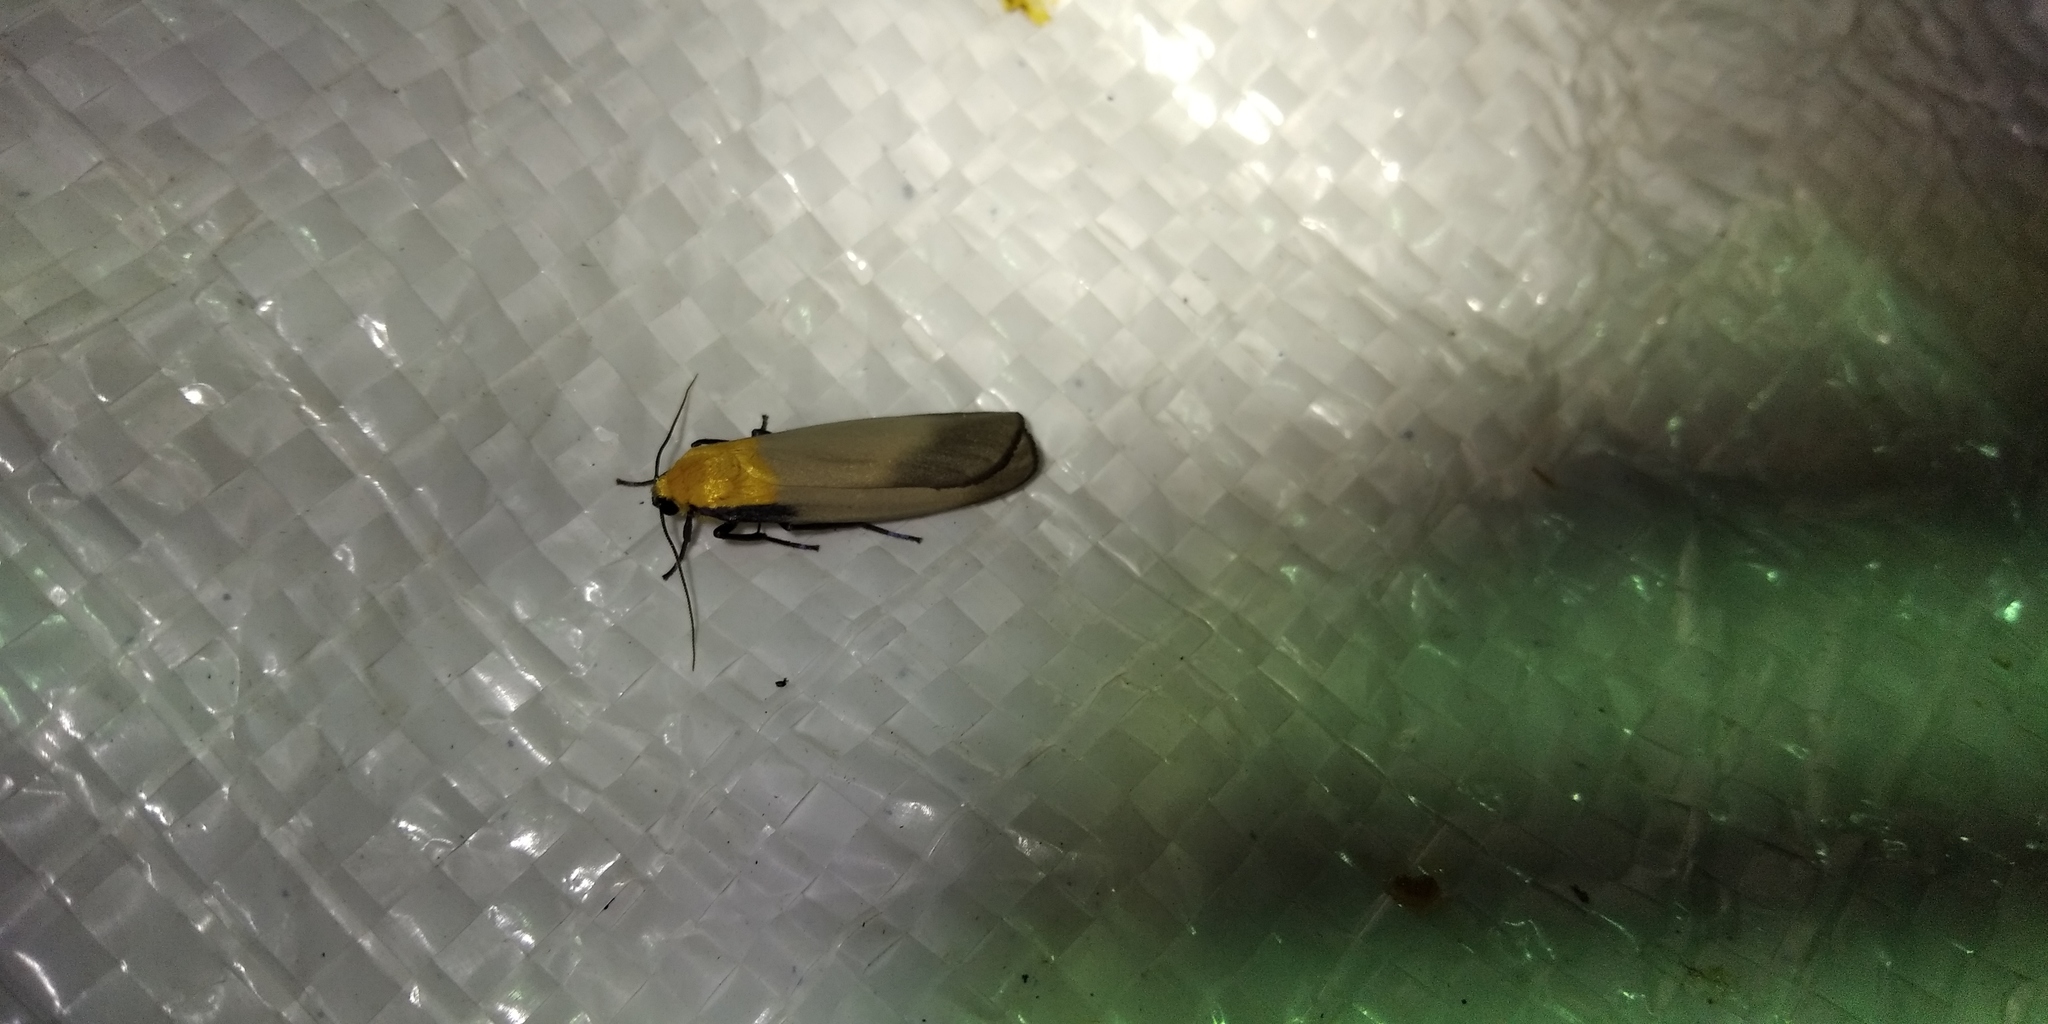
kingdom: Animalia
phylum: Arthropoda
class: Insecta
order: Lepidoptera
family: Erebidae
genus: Lithosia
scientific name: Lithosia quadra
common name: Four-spotted footman
